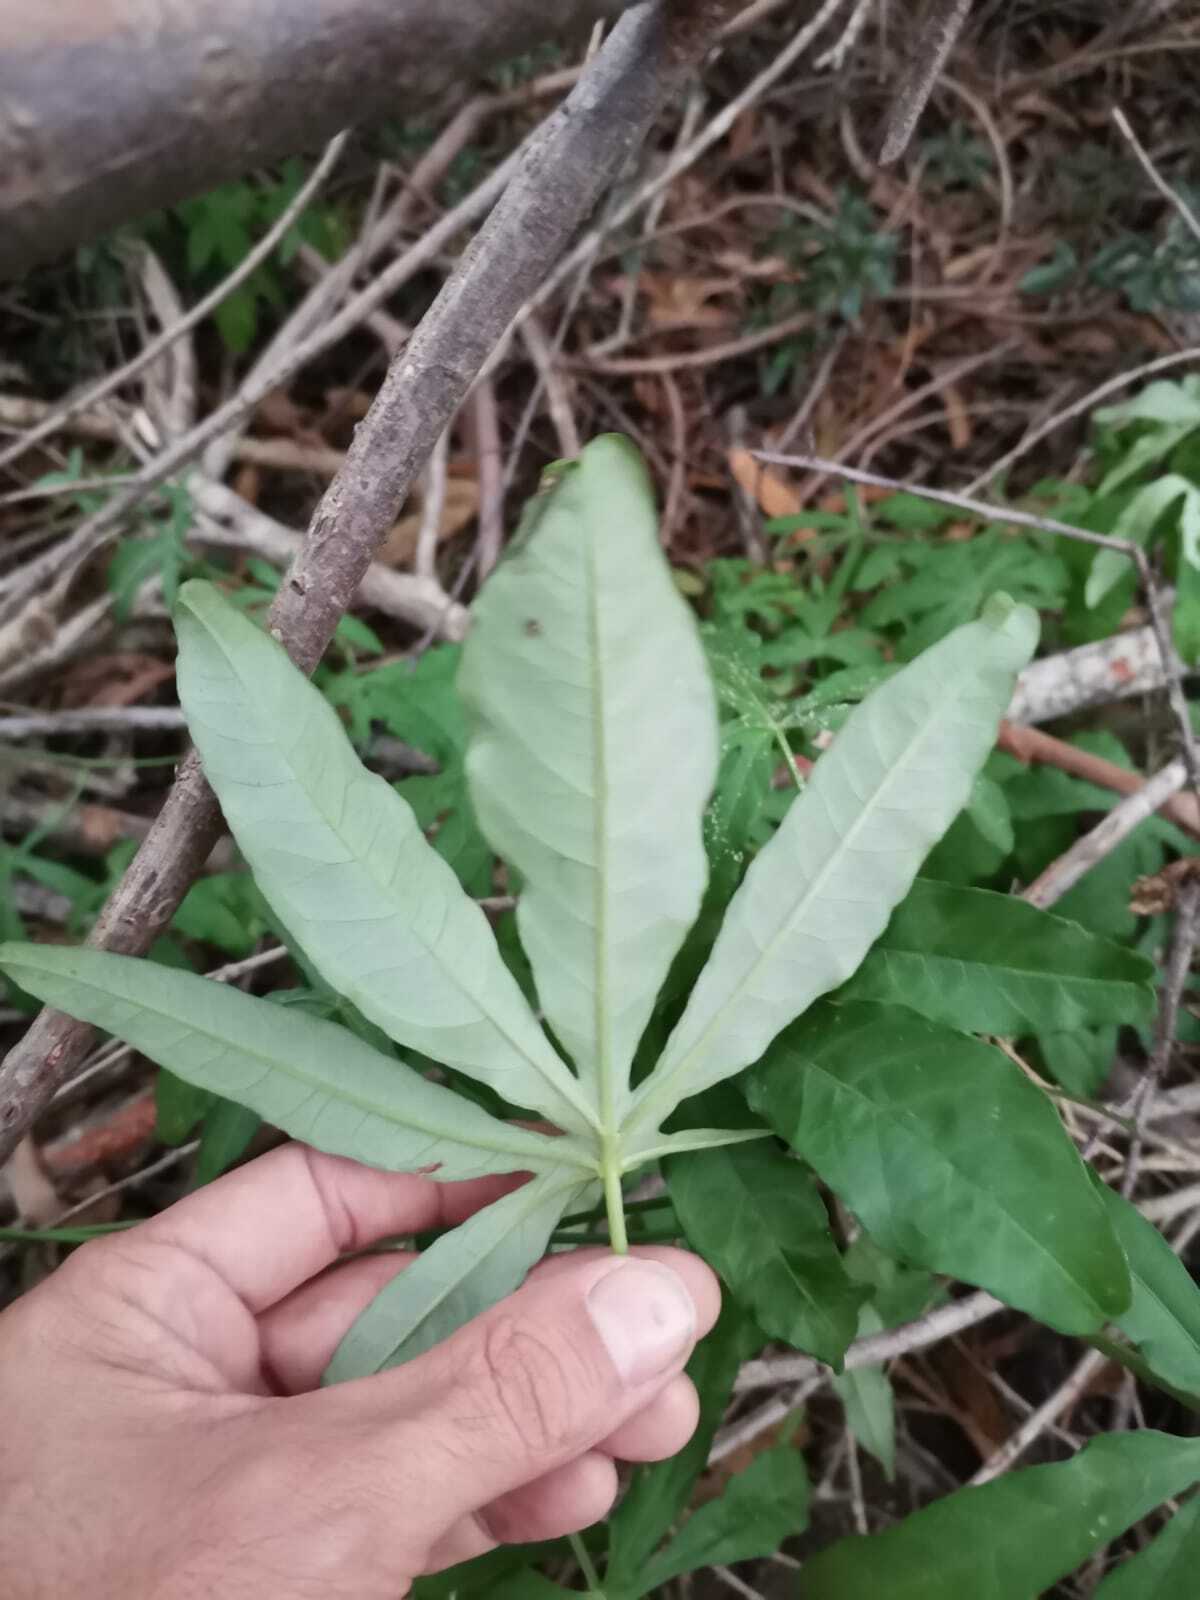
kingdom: Plantae
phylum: Tracheophyta
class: Magnoliopsida
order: Solanales
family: Convolvulaceae
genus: Ipomoea
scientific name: Ipomoea cairica
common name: Mile a minute vine
